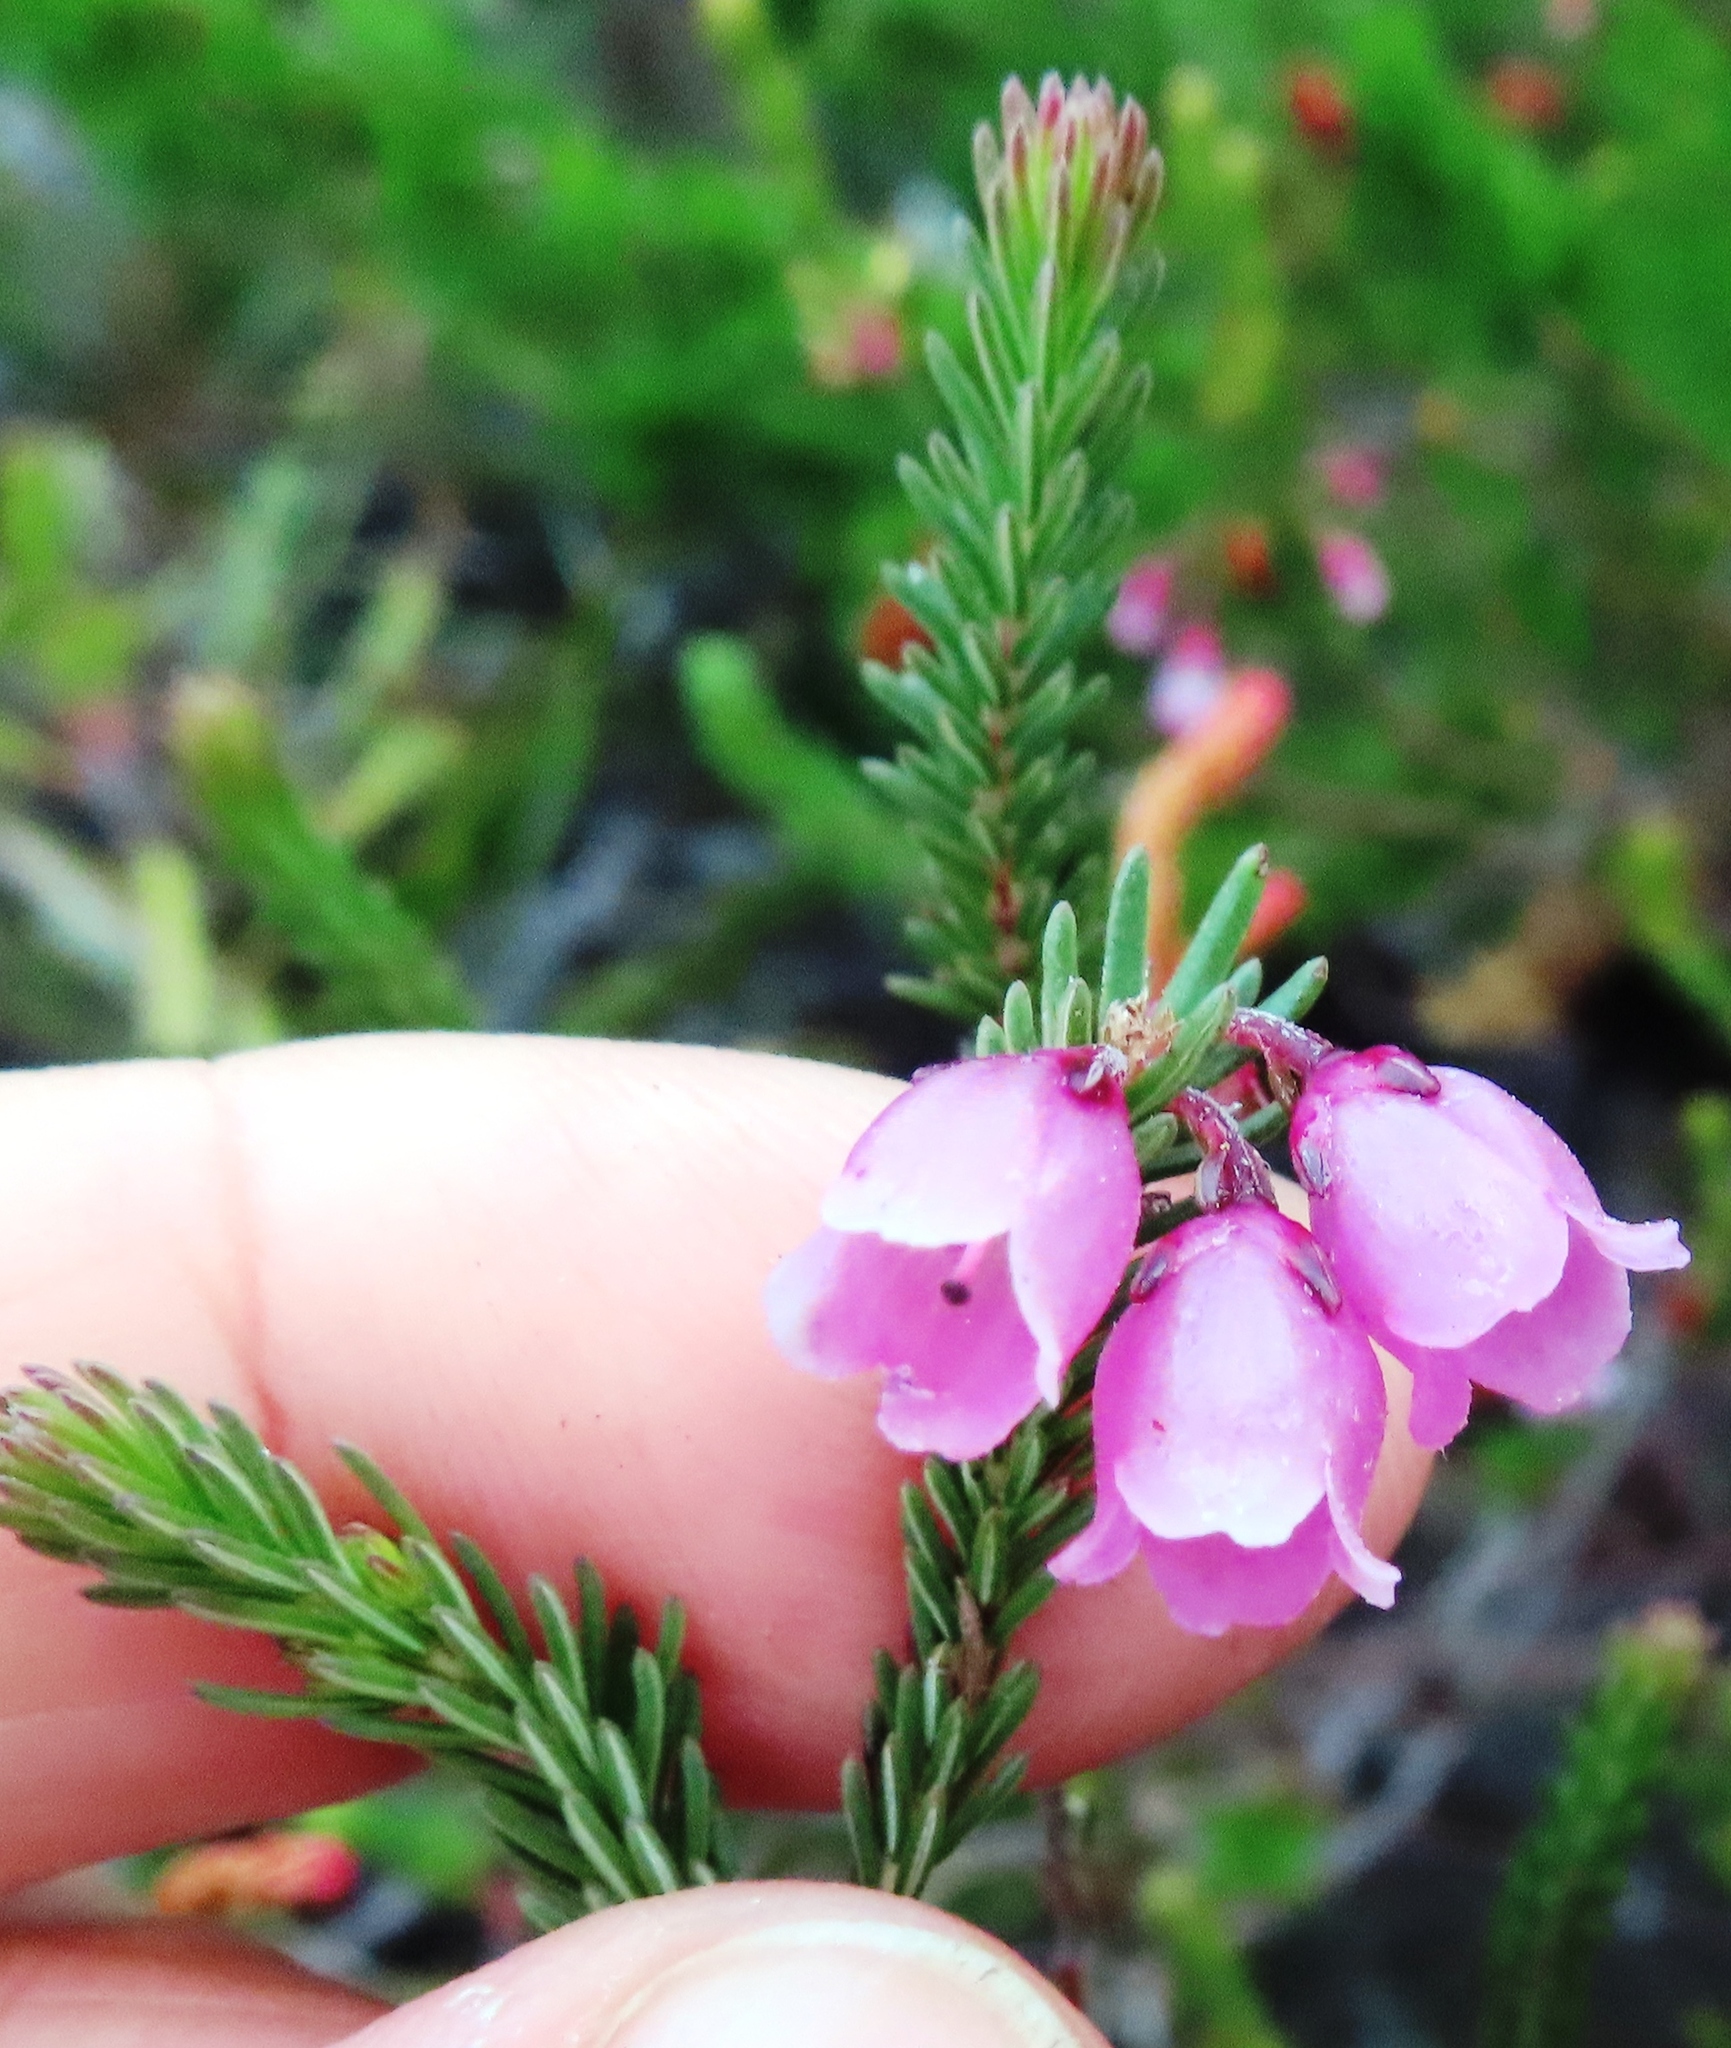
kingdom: Plantae
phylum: Tracheophyta
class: Magnoliopsida
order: Ericales
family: Ericaceae
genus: Erica
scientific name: Erica axilliflora
